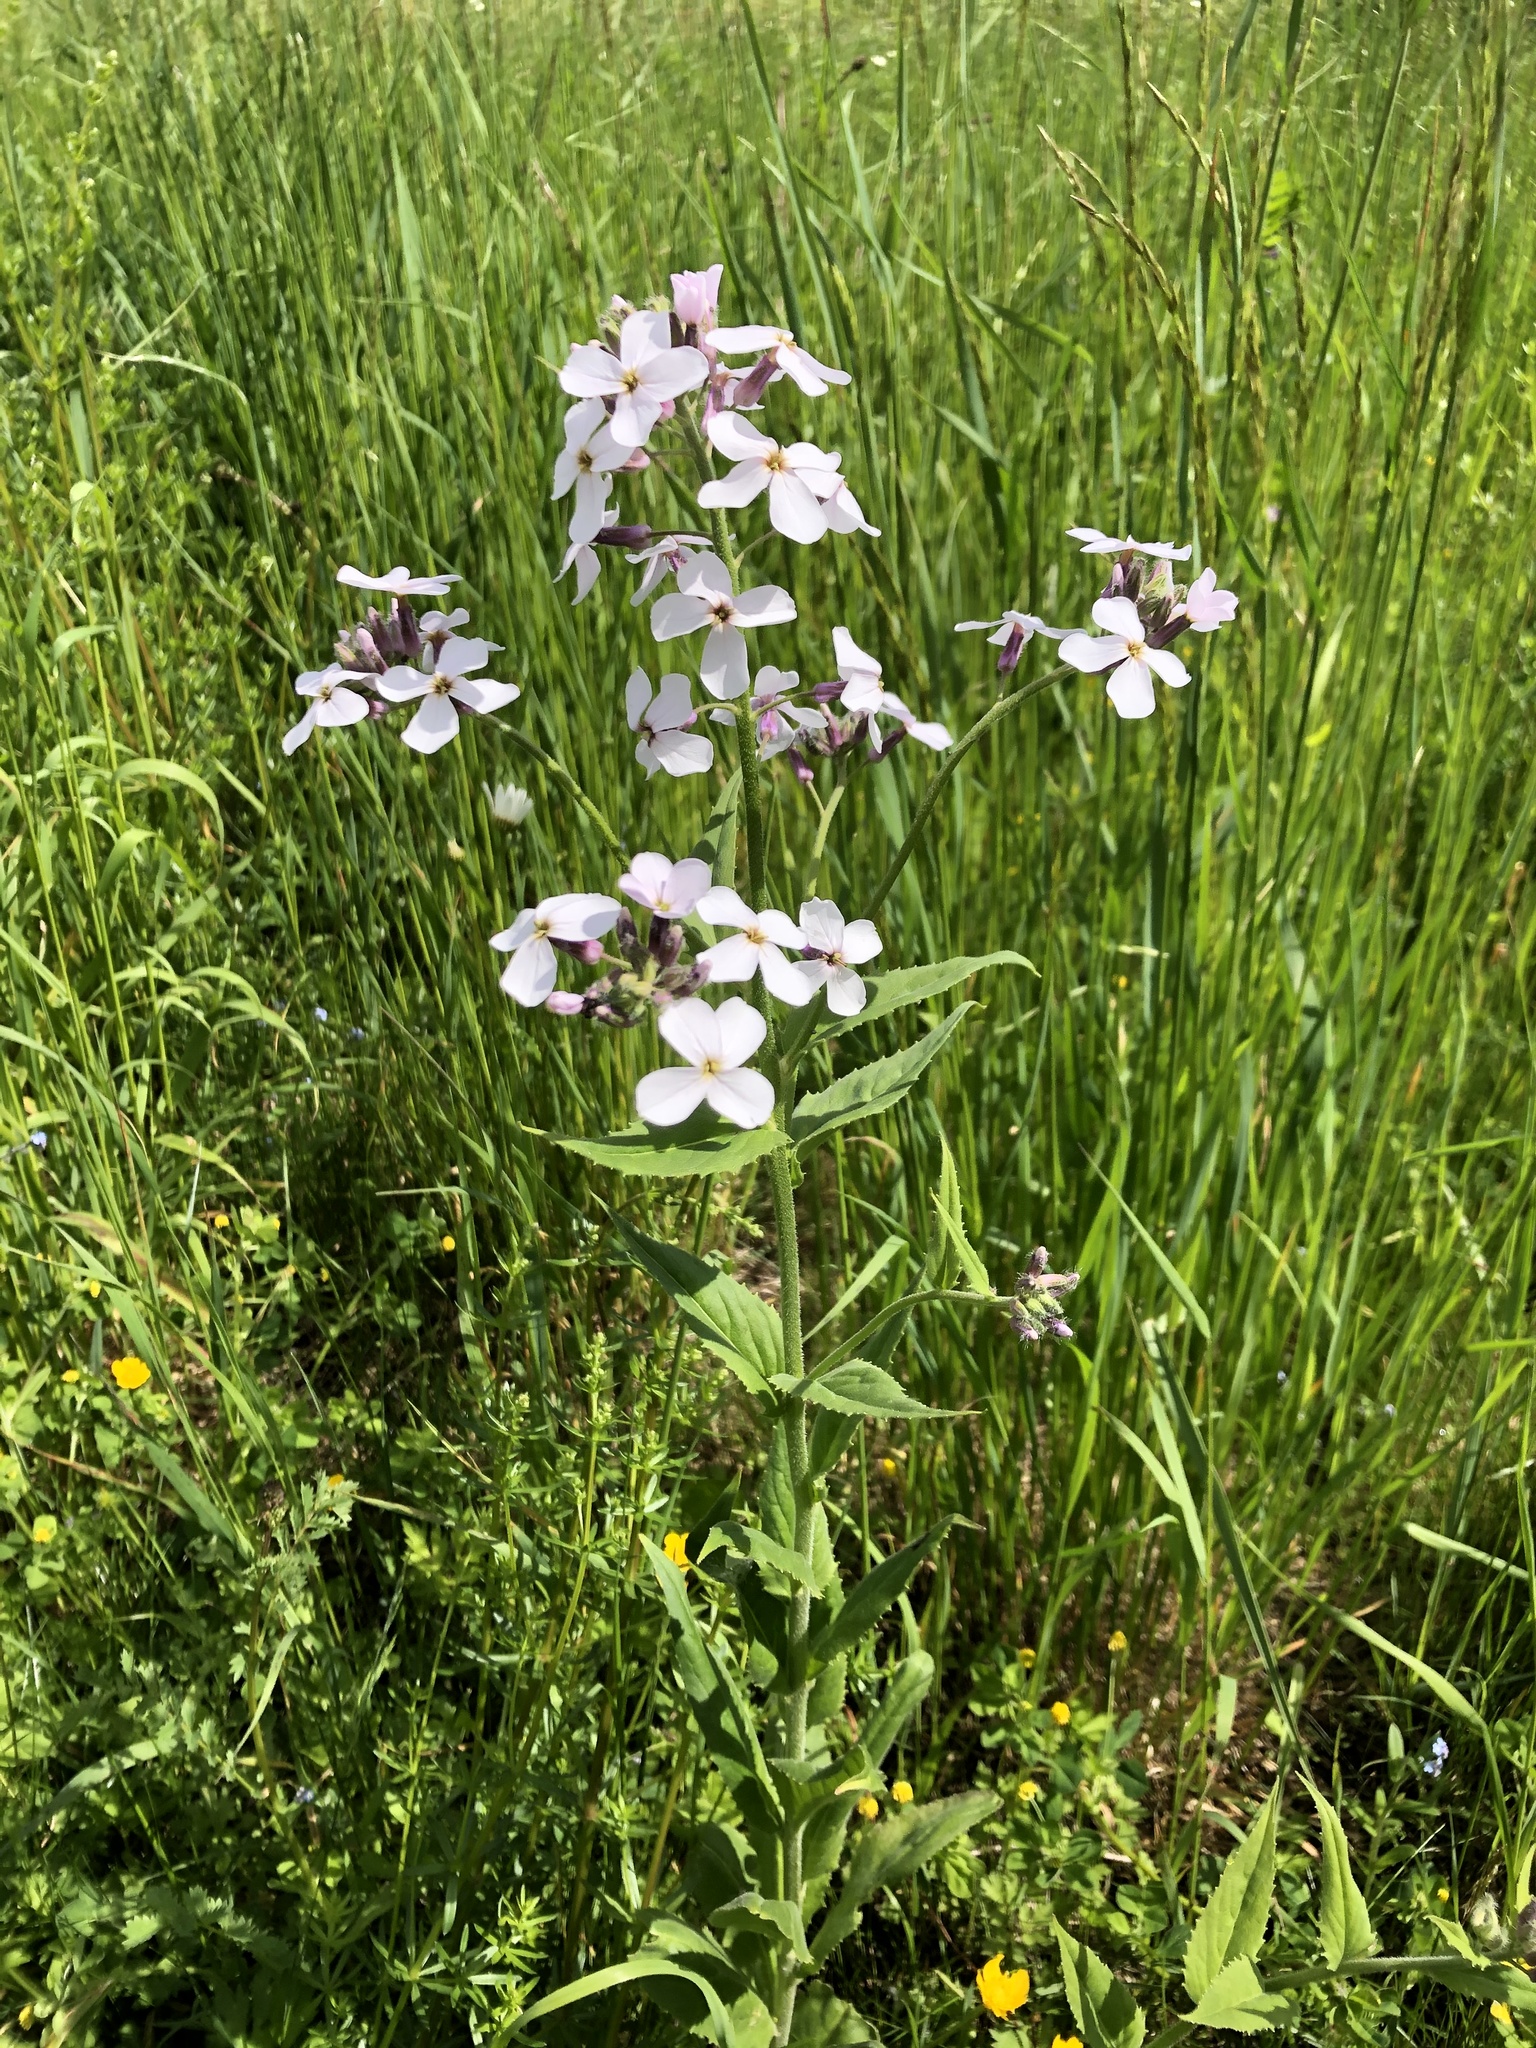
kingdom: Plantae
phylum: Tracheophyta
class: Magnoliopsida
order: Brassicales
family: Brassicaceae
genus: Hesperis
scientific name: Hesperis matronalis
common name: Dame's-violet
